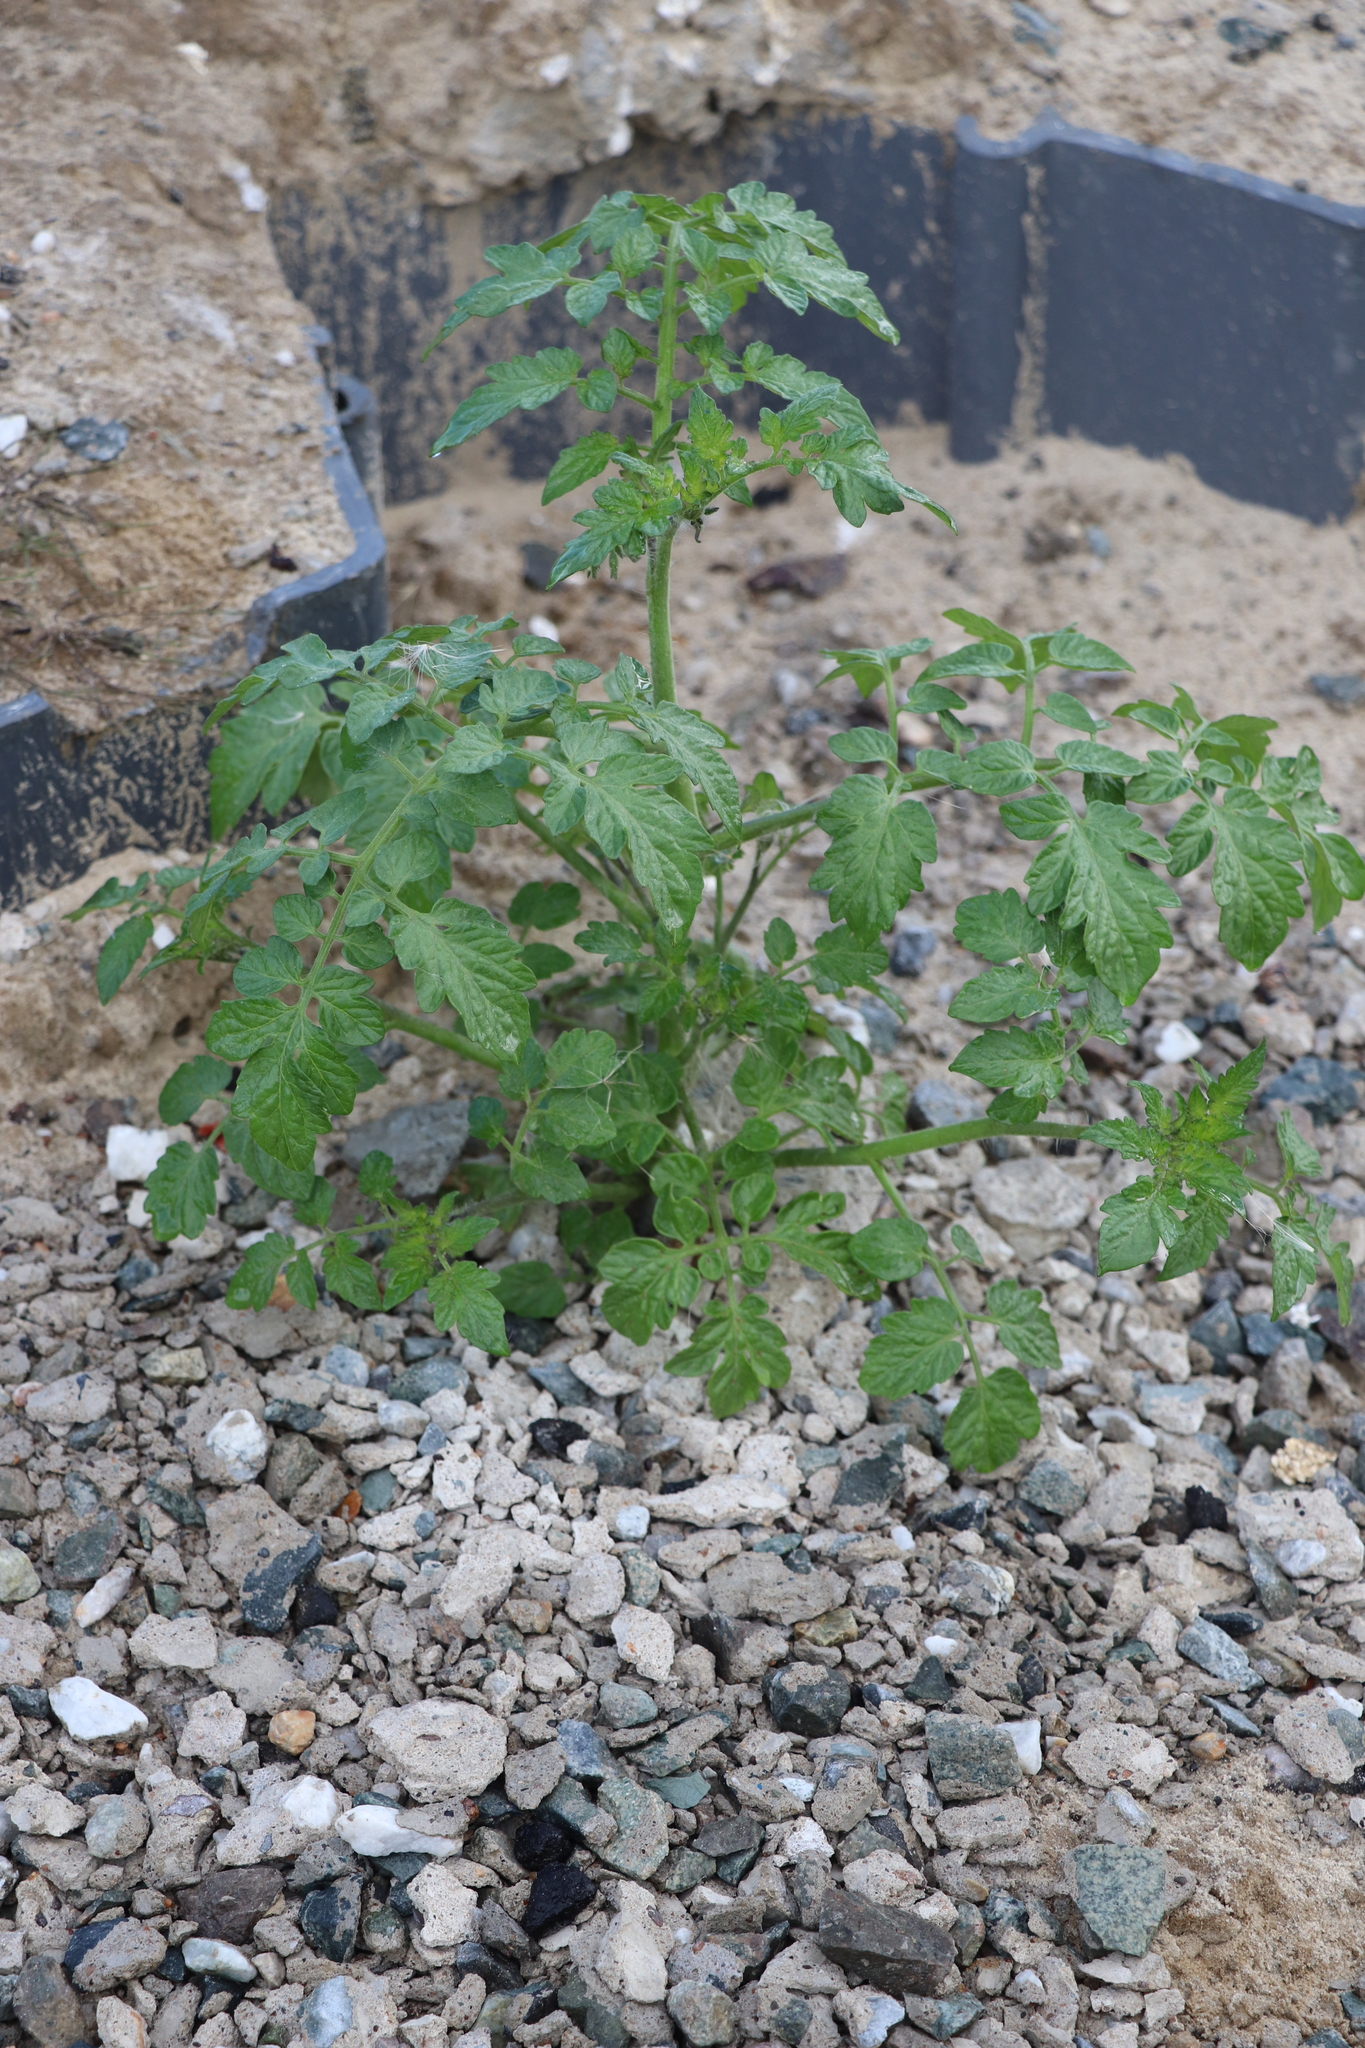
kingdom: Plantae
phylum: Tracheophyta
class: Magnoliopsida
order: Solanales
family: Solanaceae
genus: Solanum
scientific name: Solanum lycopersicum
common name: Garden tomato
